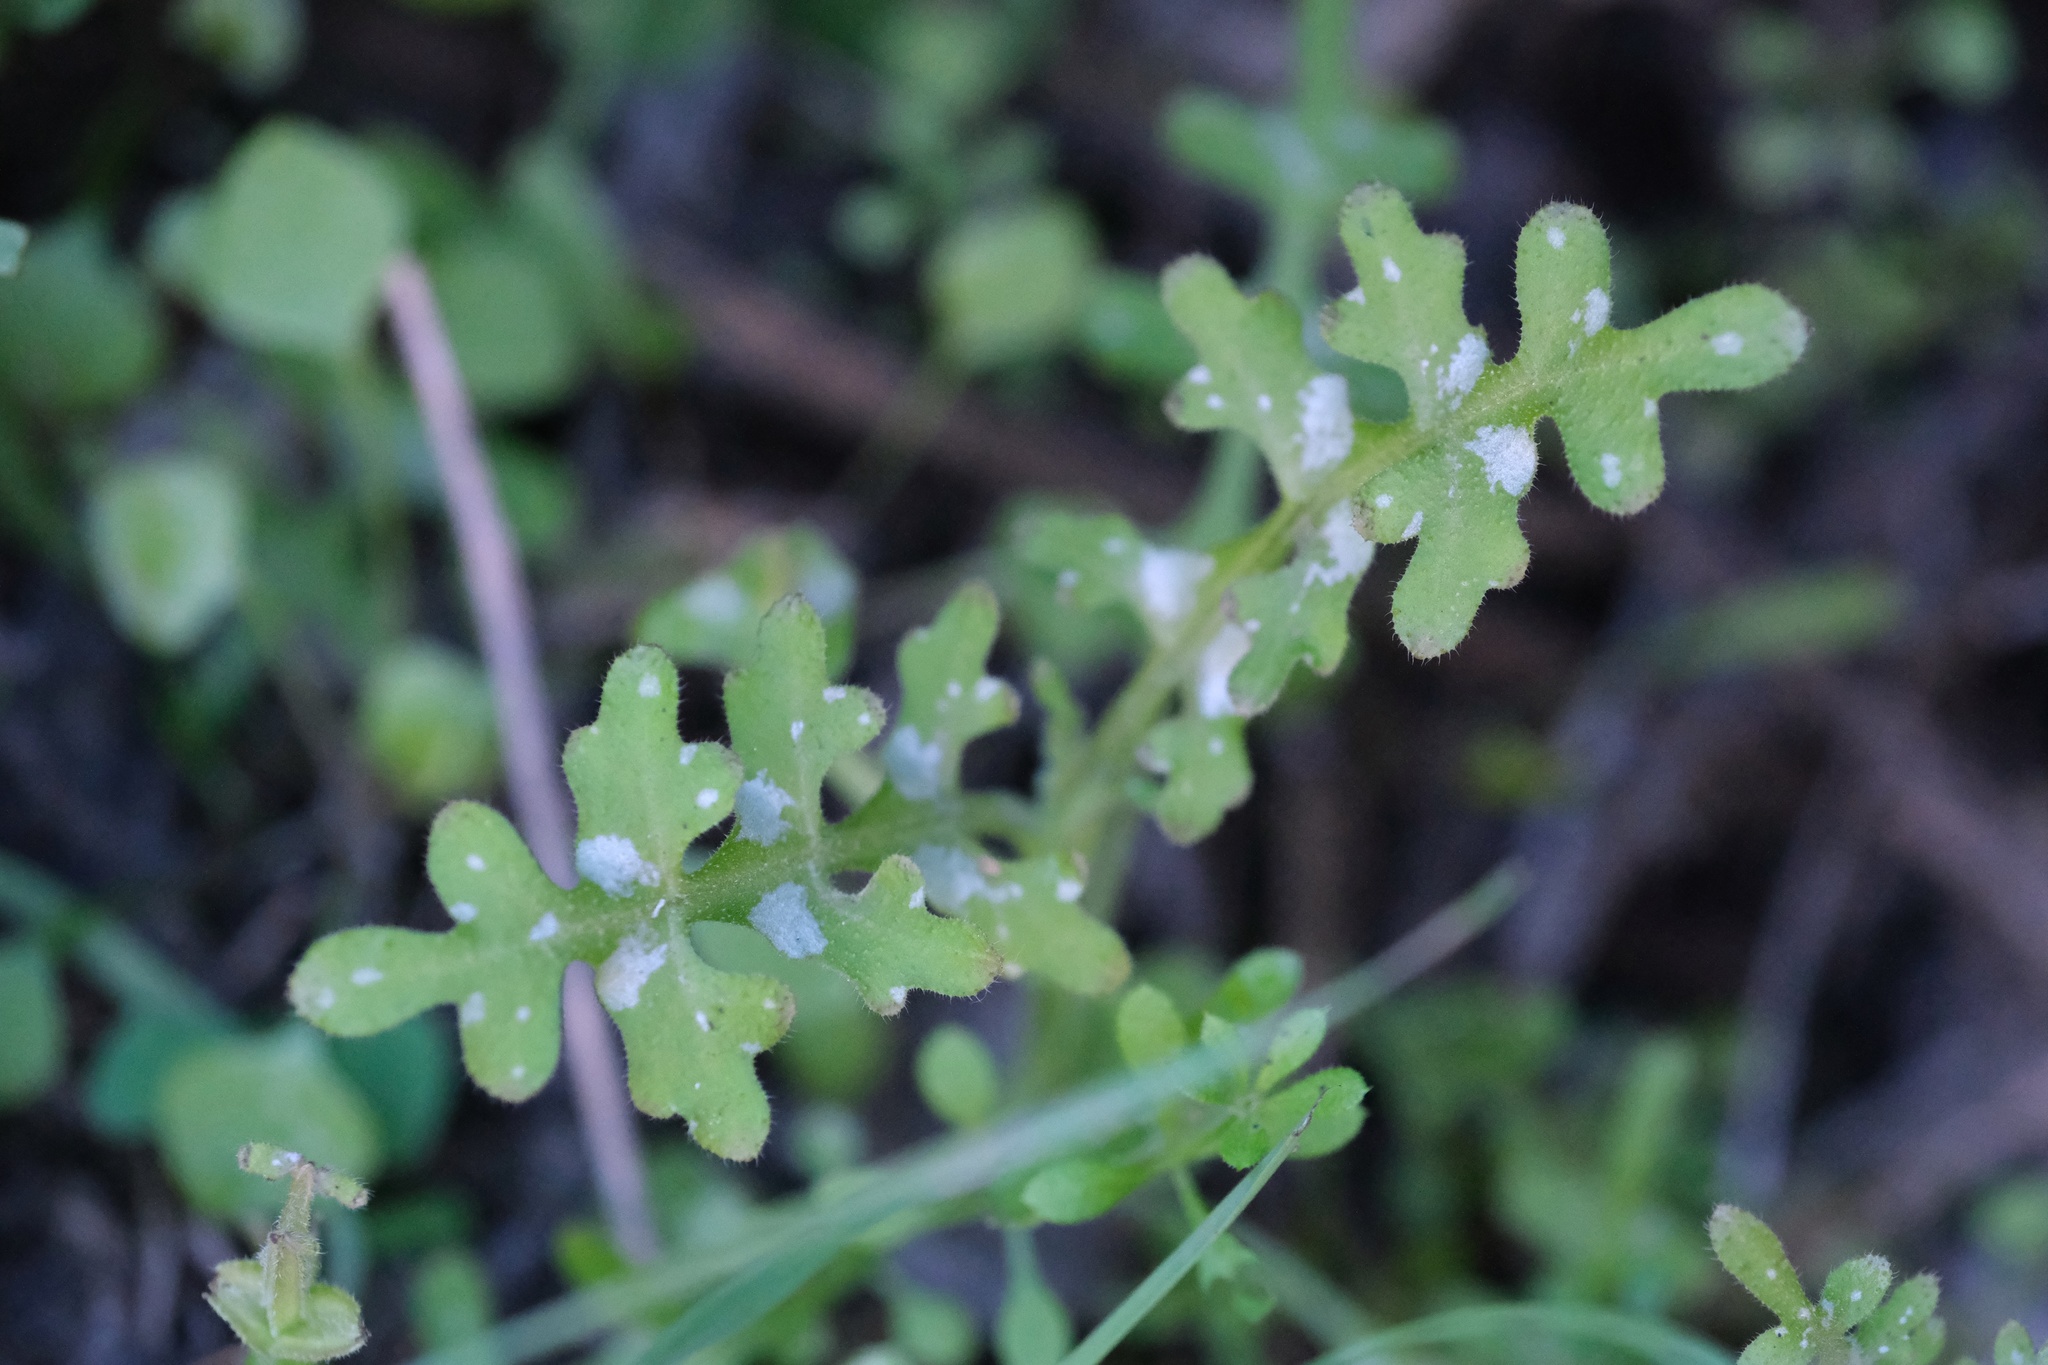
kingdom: Plantae
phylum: Tracheophyta
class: Magnoliopsida
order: Boraginales
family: Hydrophyllaceae
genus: Pholistoma
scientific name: Pholistoma auritum
